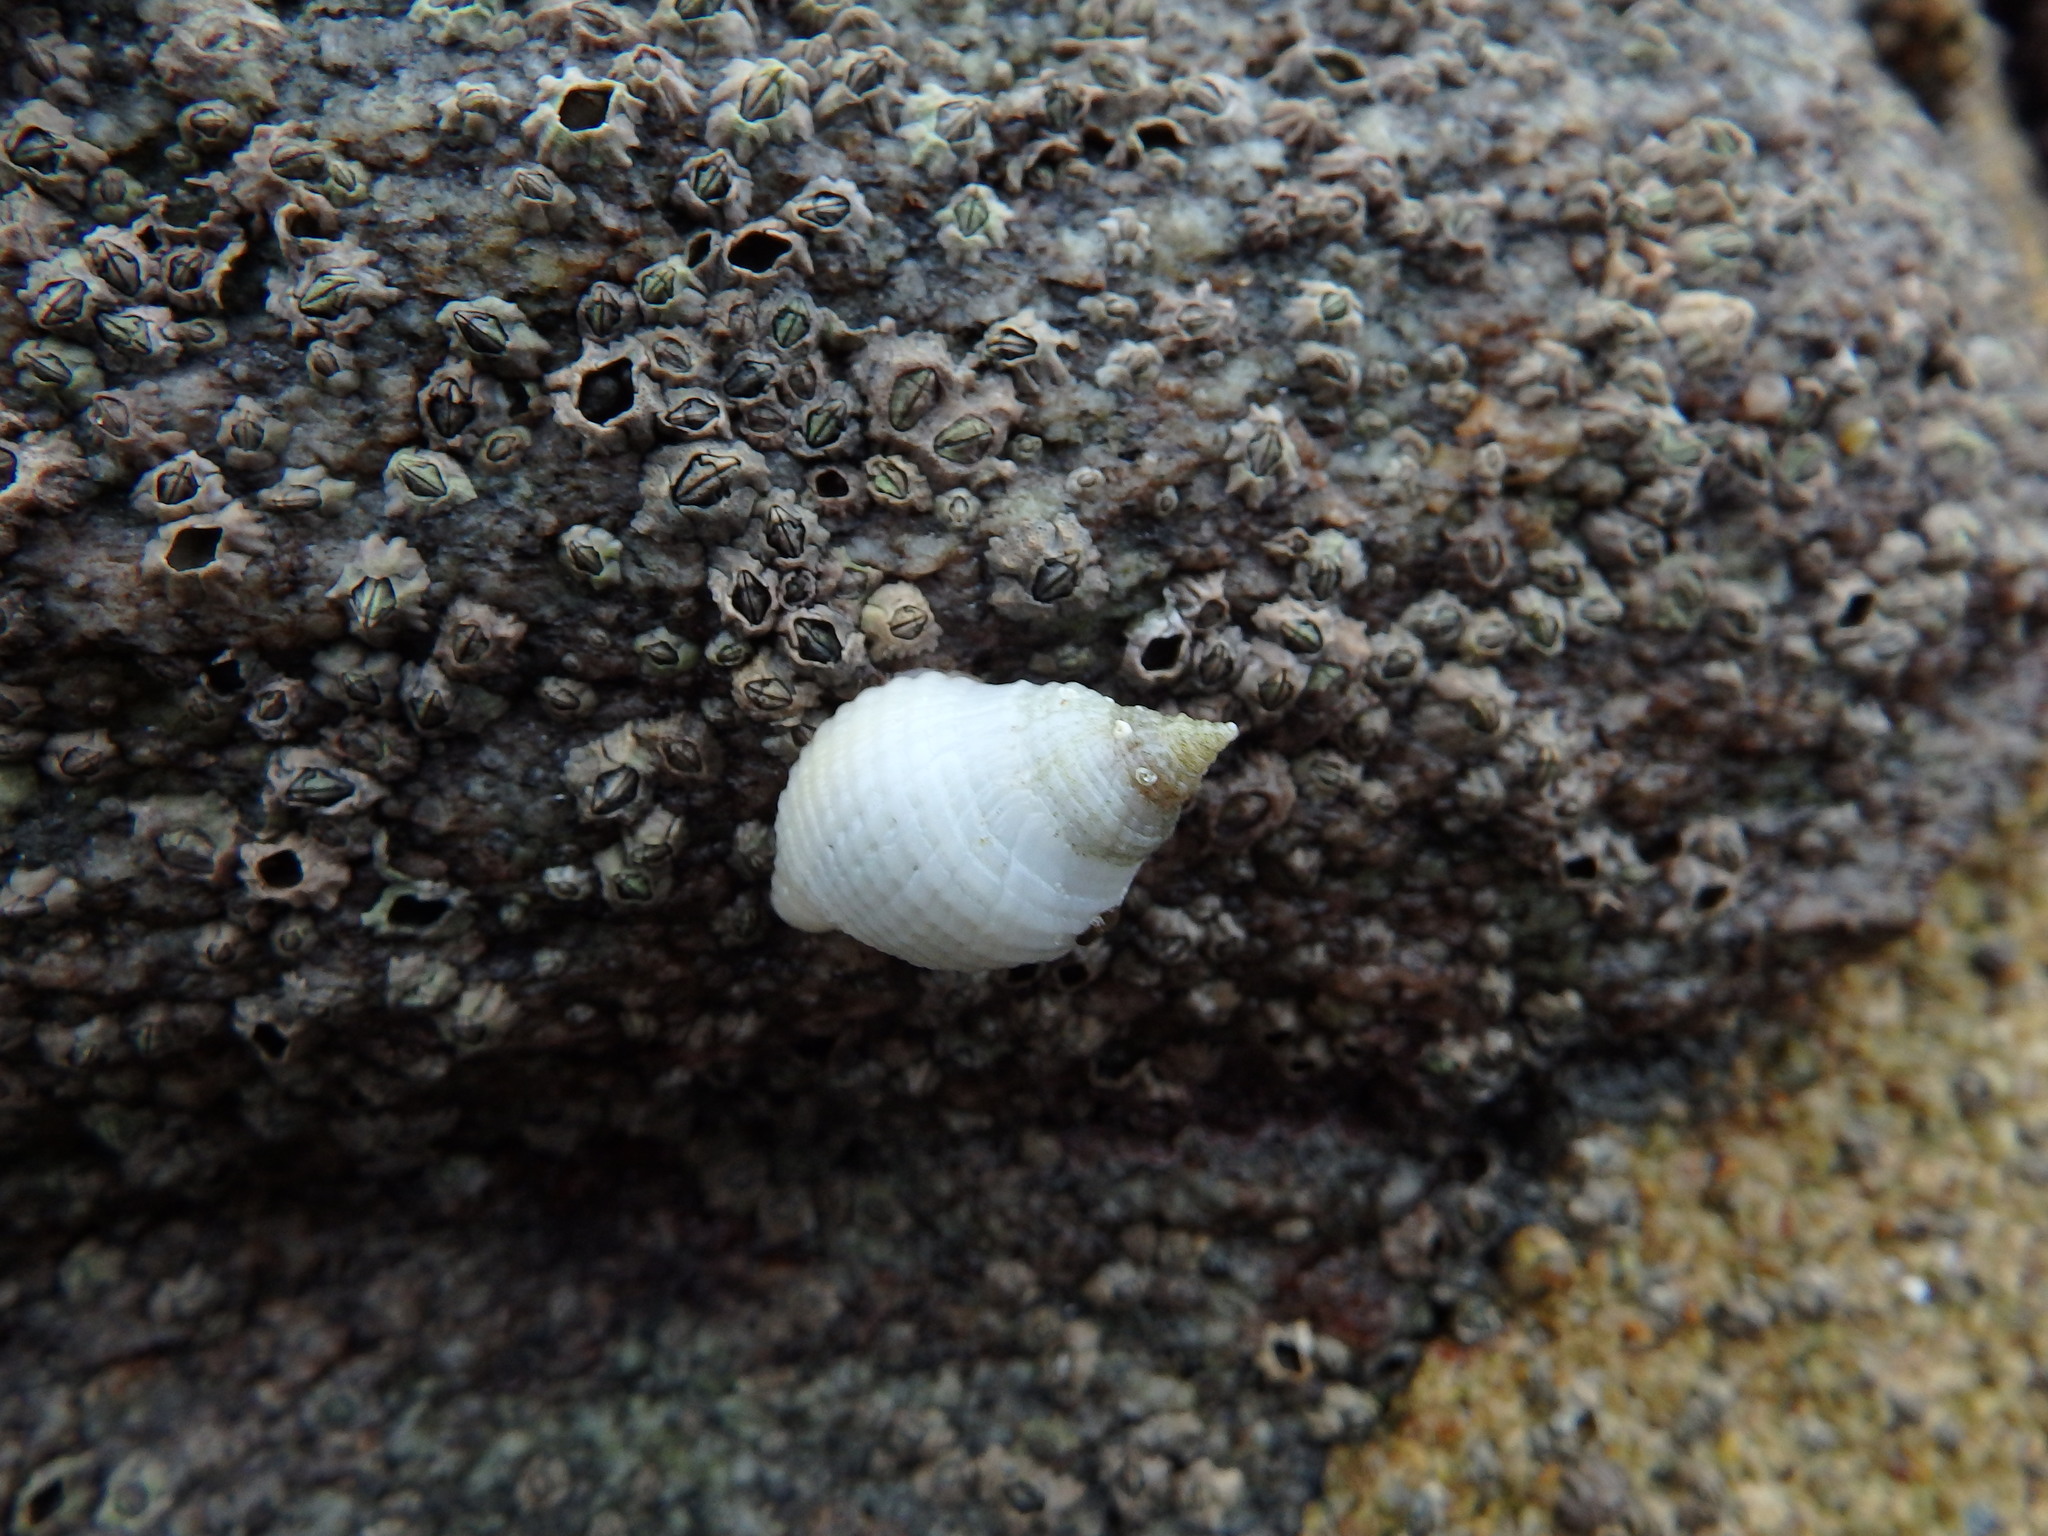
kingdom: Animalia
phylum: Mollusca
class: Gastropoda
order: Neogastropoda
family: Muricidae
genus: Nucella
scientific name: Nucella lapillus
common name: Dog whelk
